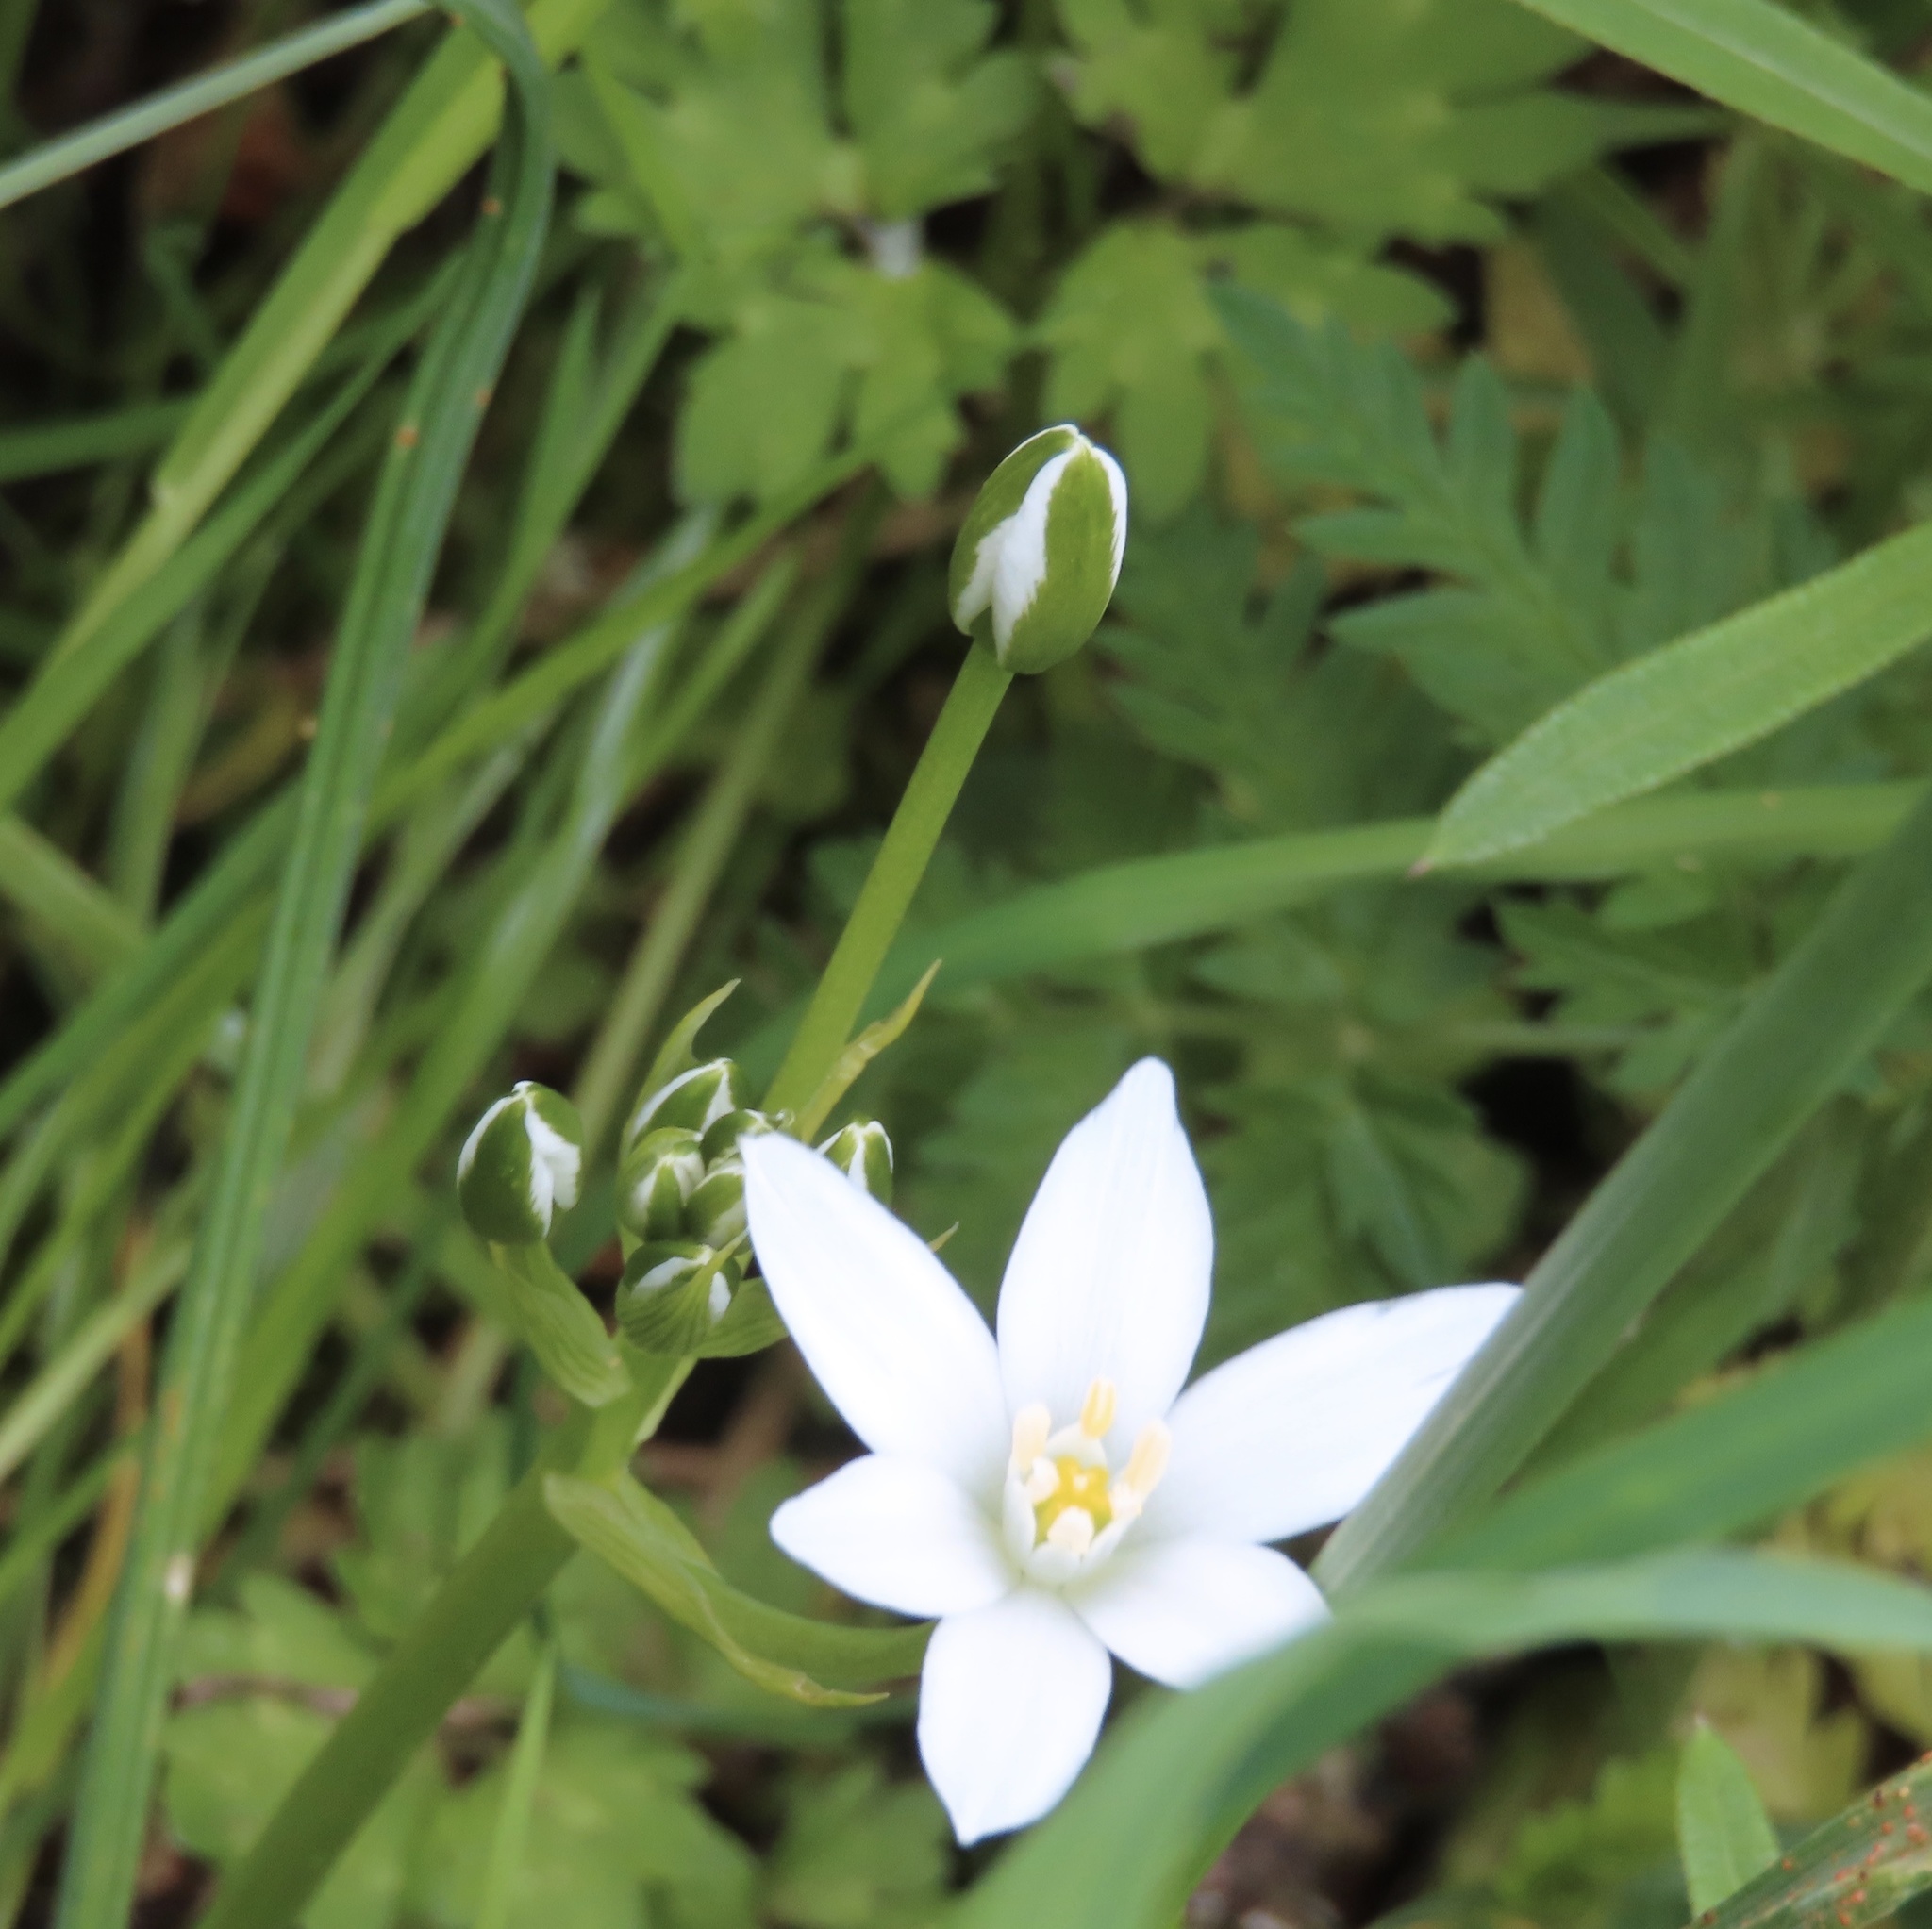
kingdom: Plantae
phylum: Tracheophyta
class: Liliopsida
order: Asparagales
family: Asparagaceae
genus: Ornithogalum
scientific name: Ornithogalum umbellatum
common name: Garden star-of-bethlehem
